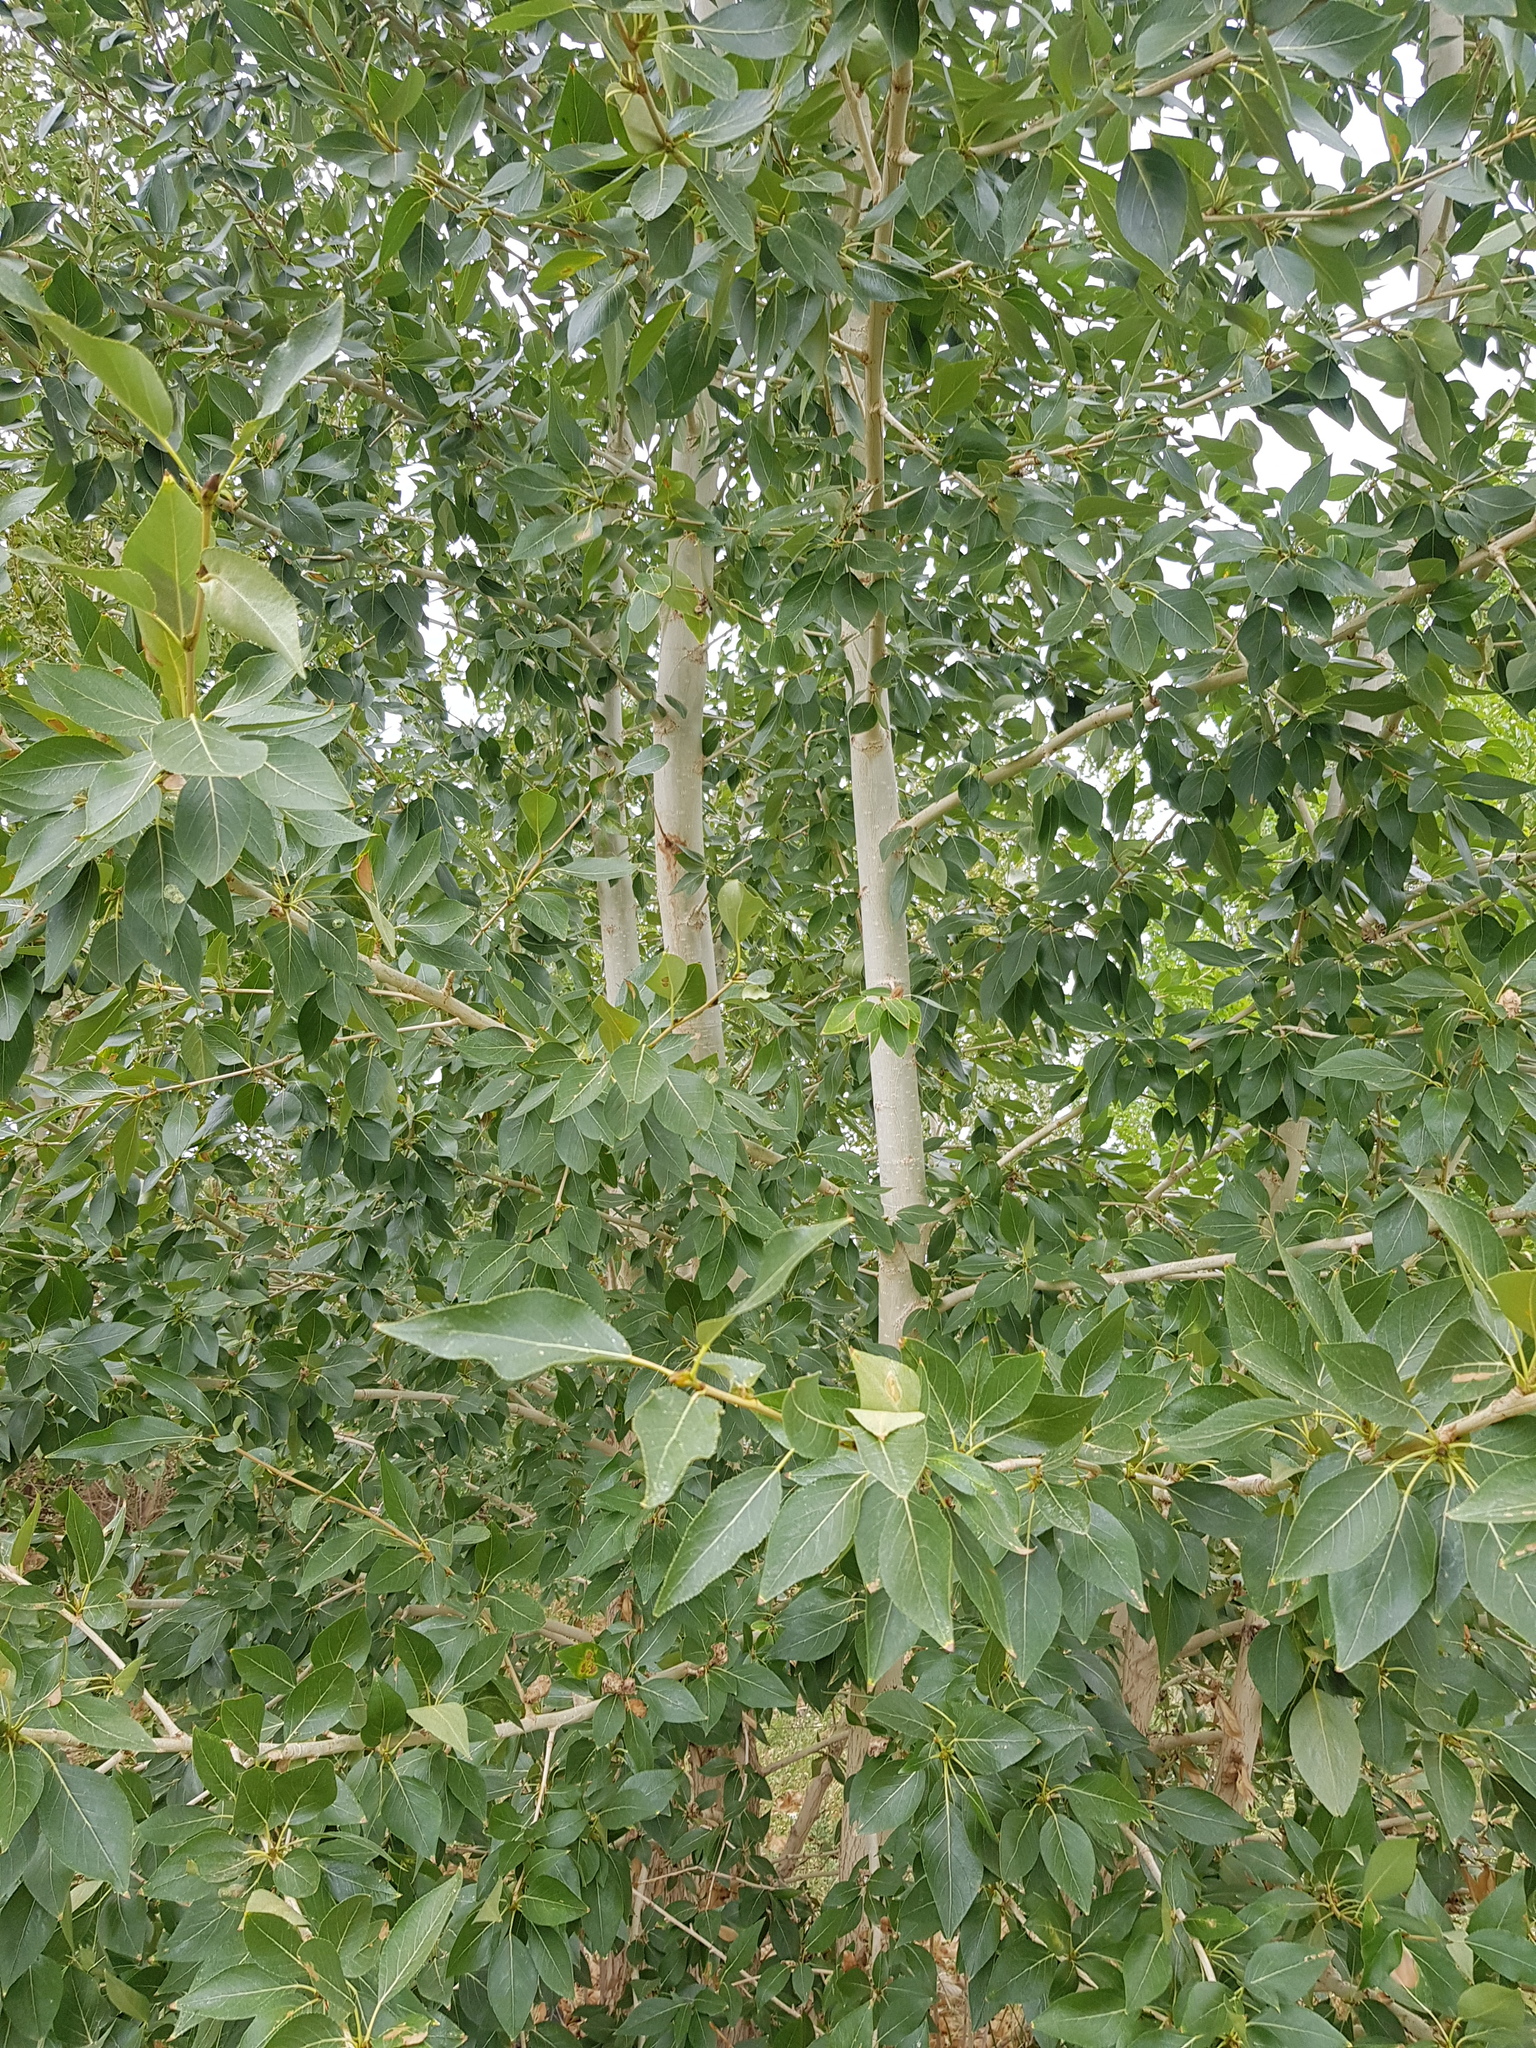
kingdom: Plantae
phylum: Tracheophyta
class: Magnoliopsida
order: Malpighiales
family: Salicaceae
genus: Populus
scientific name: Populus laurifolia
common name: Laurel-leaf poplar
